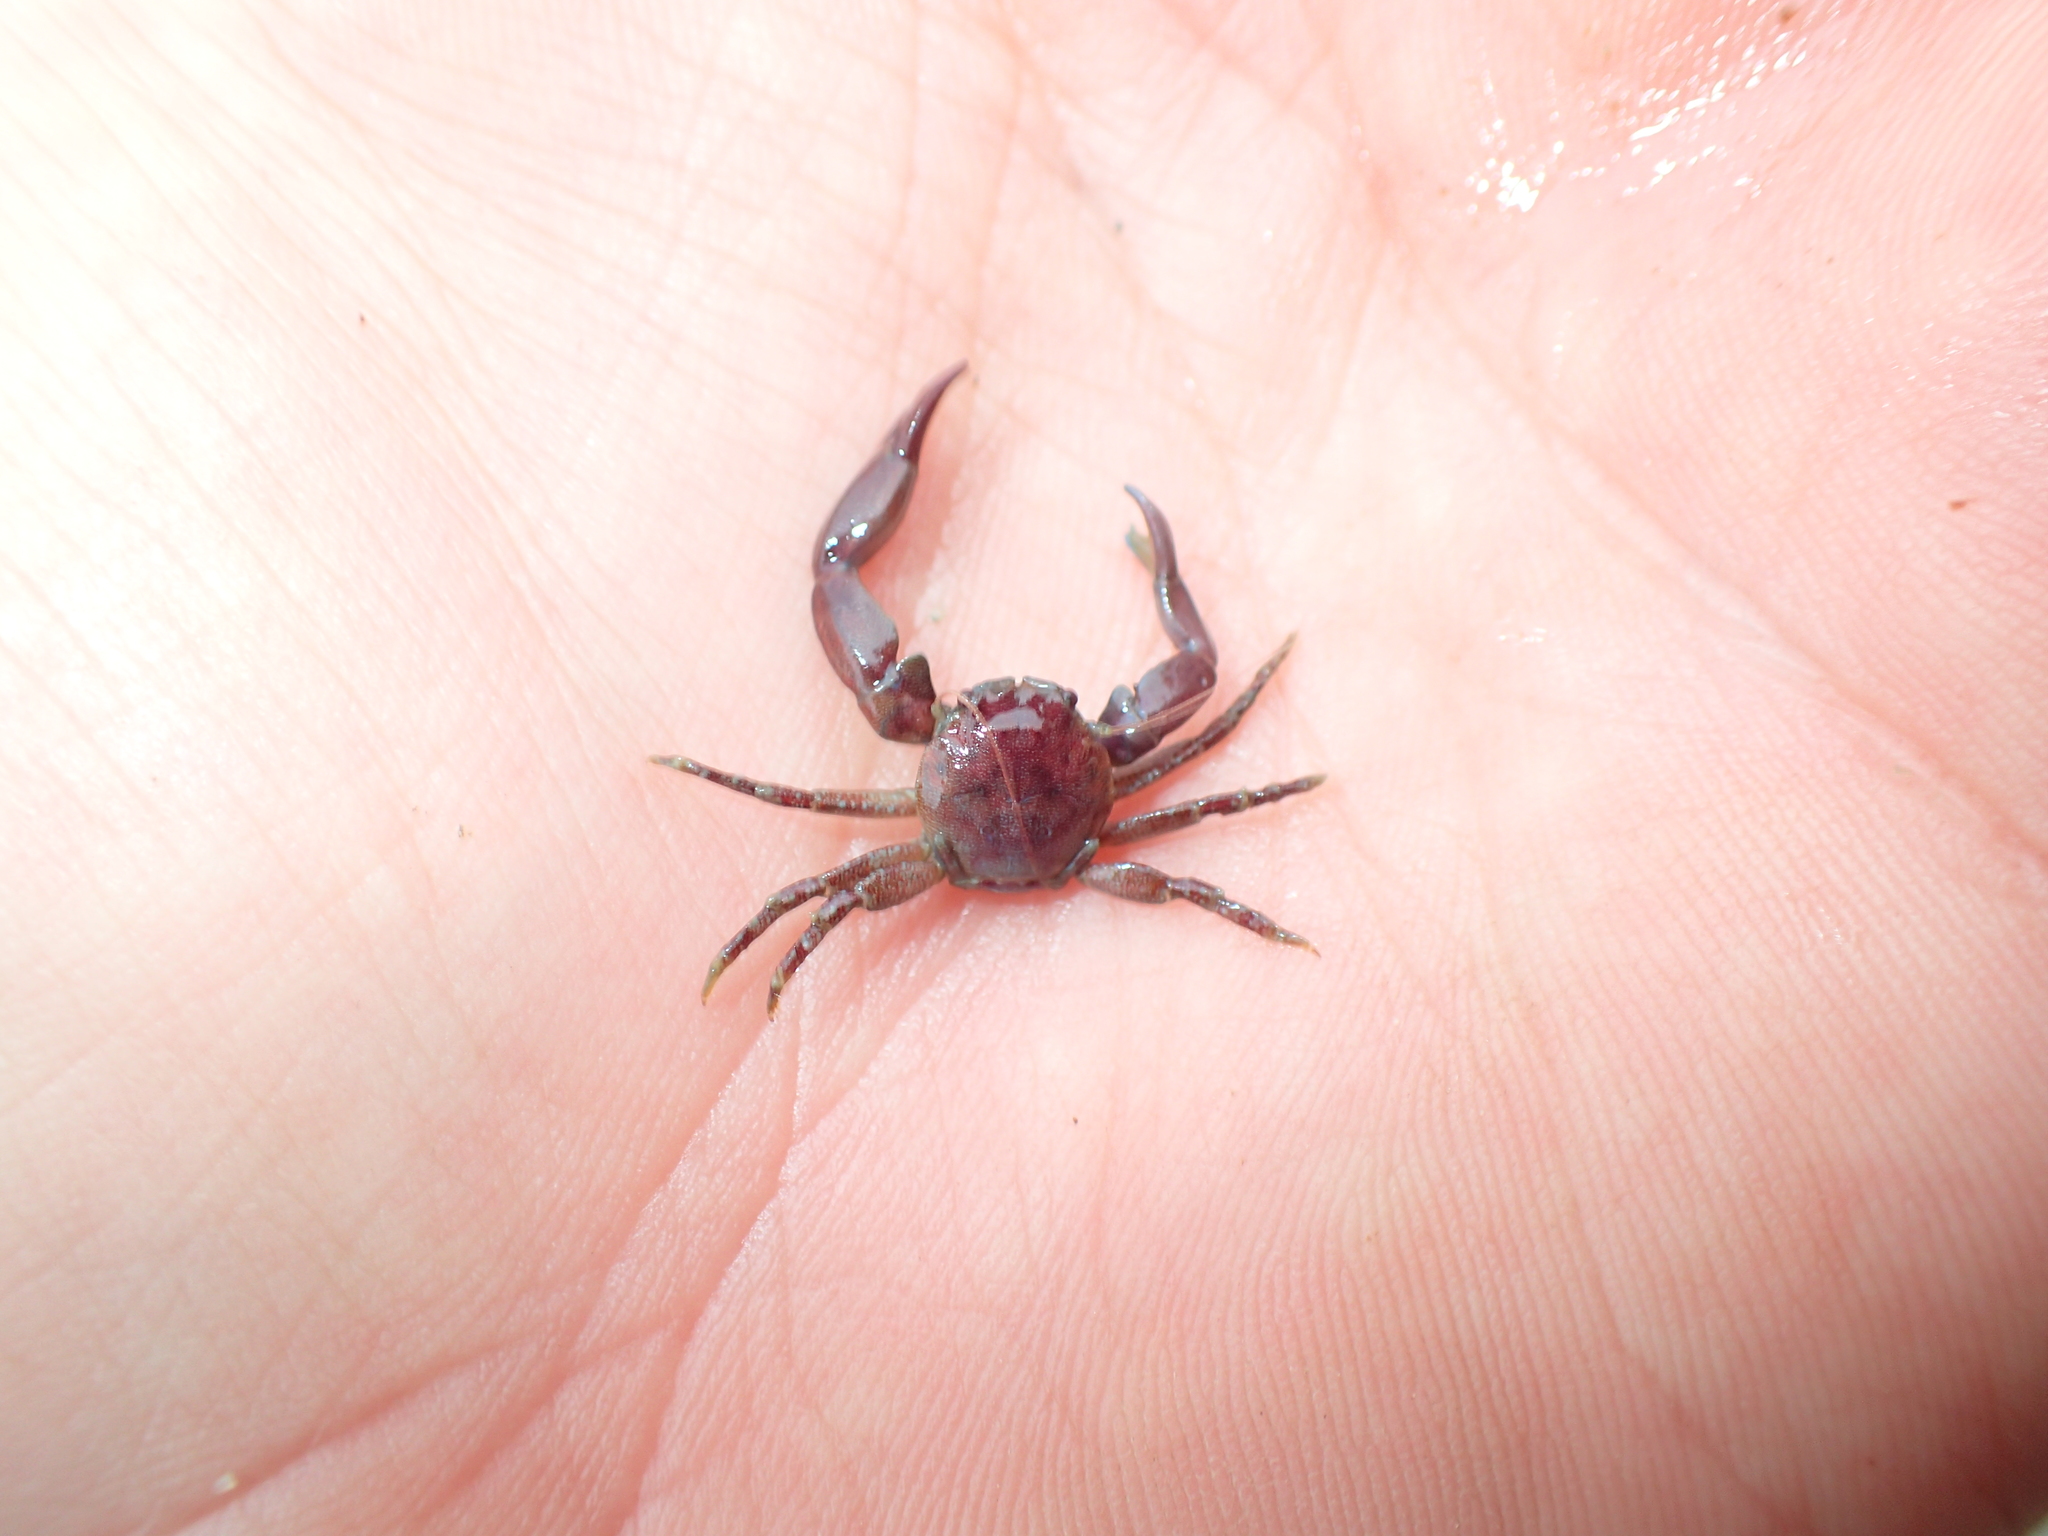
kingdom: Animalia
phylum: Arthropoda
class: Malacostraca
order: Decapoda
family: Porcellanidae
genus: Pisidia
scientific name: Pisidia longicornis
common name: Long clawed porcelain crab
